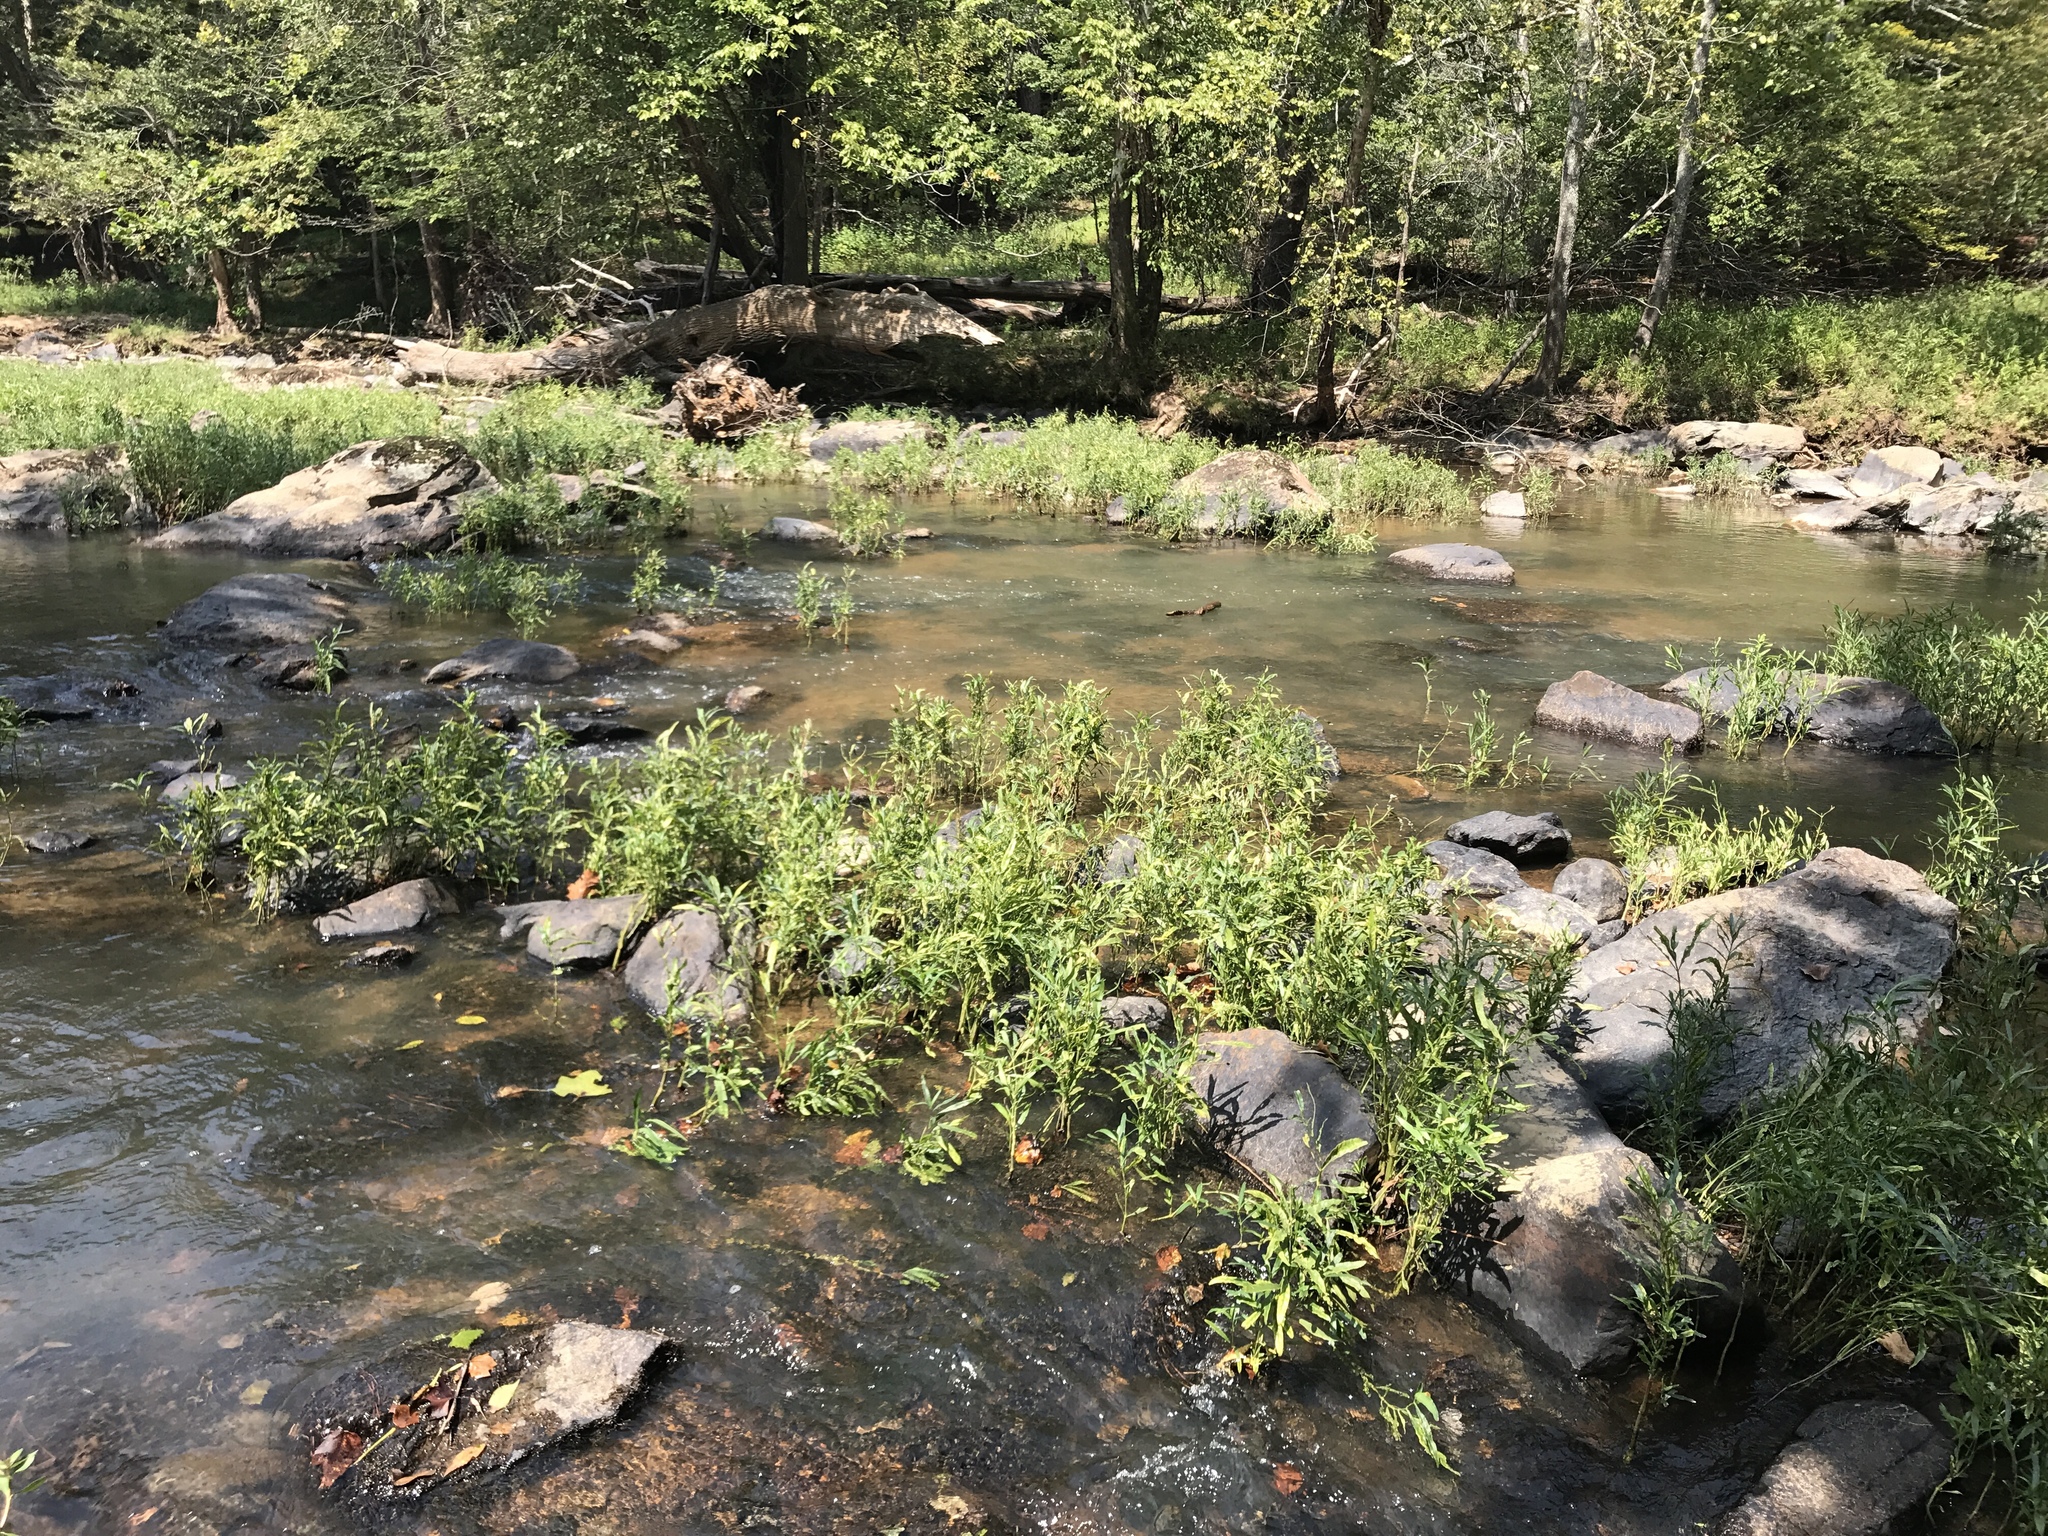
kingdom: Plantae
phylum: Tracheophyta
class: Magnoliopsida
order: Lamiales
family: Acanthaceae
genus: Dianthera
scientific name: Dianthera americana
